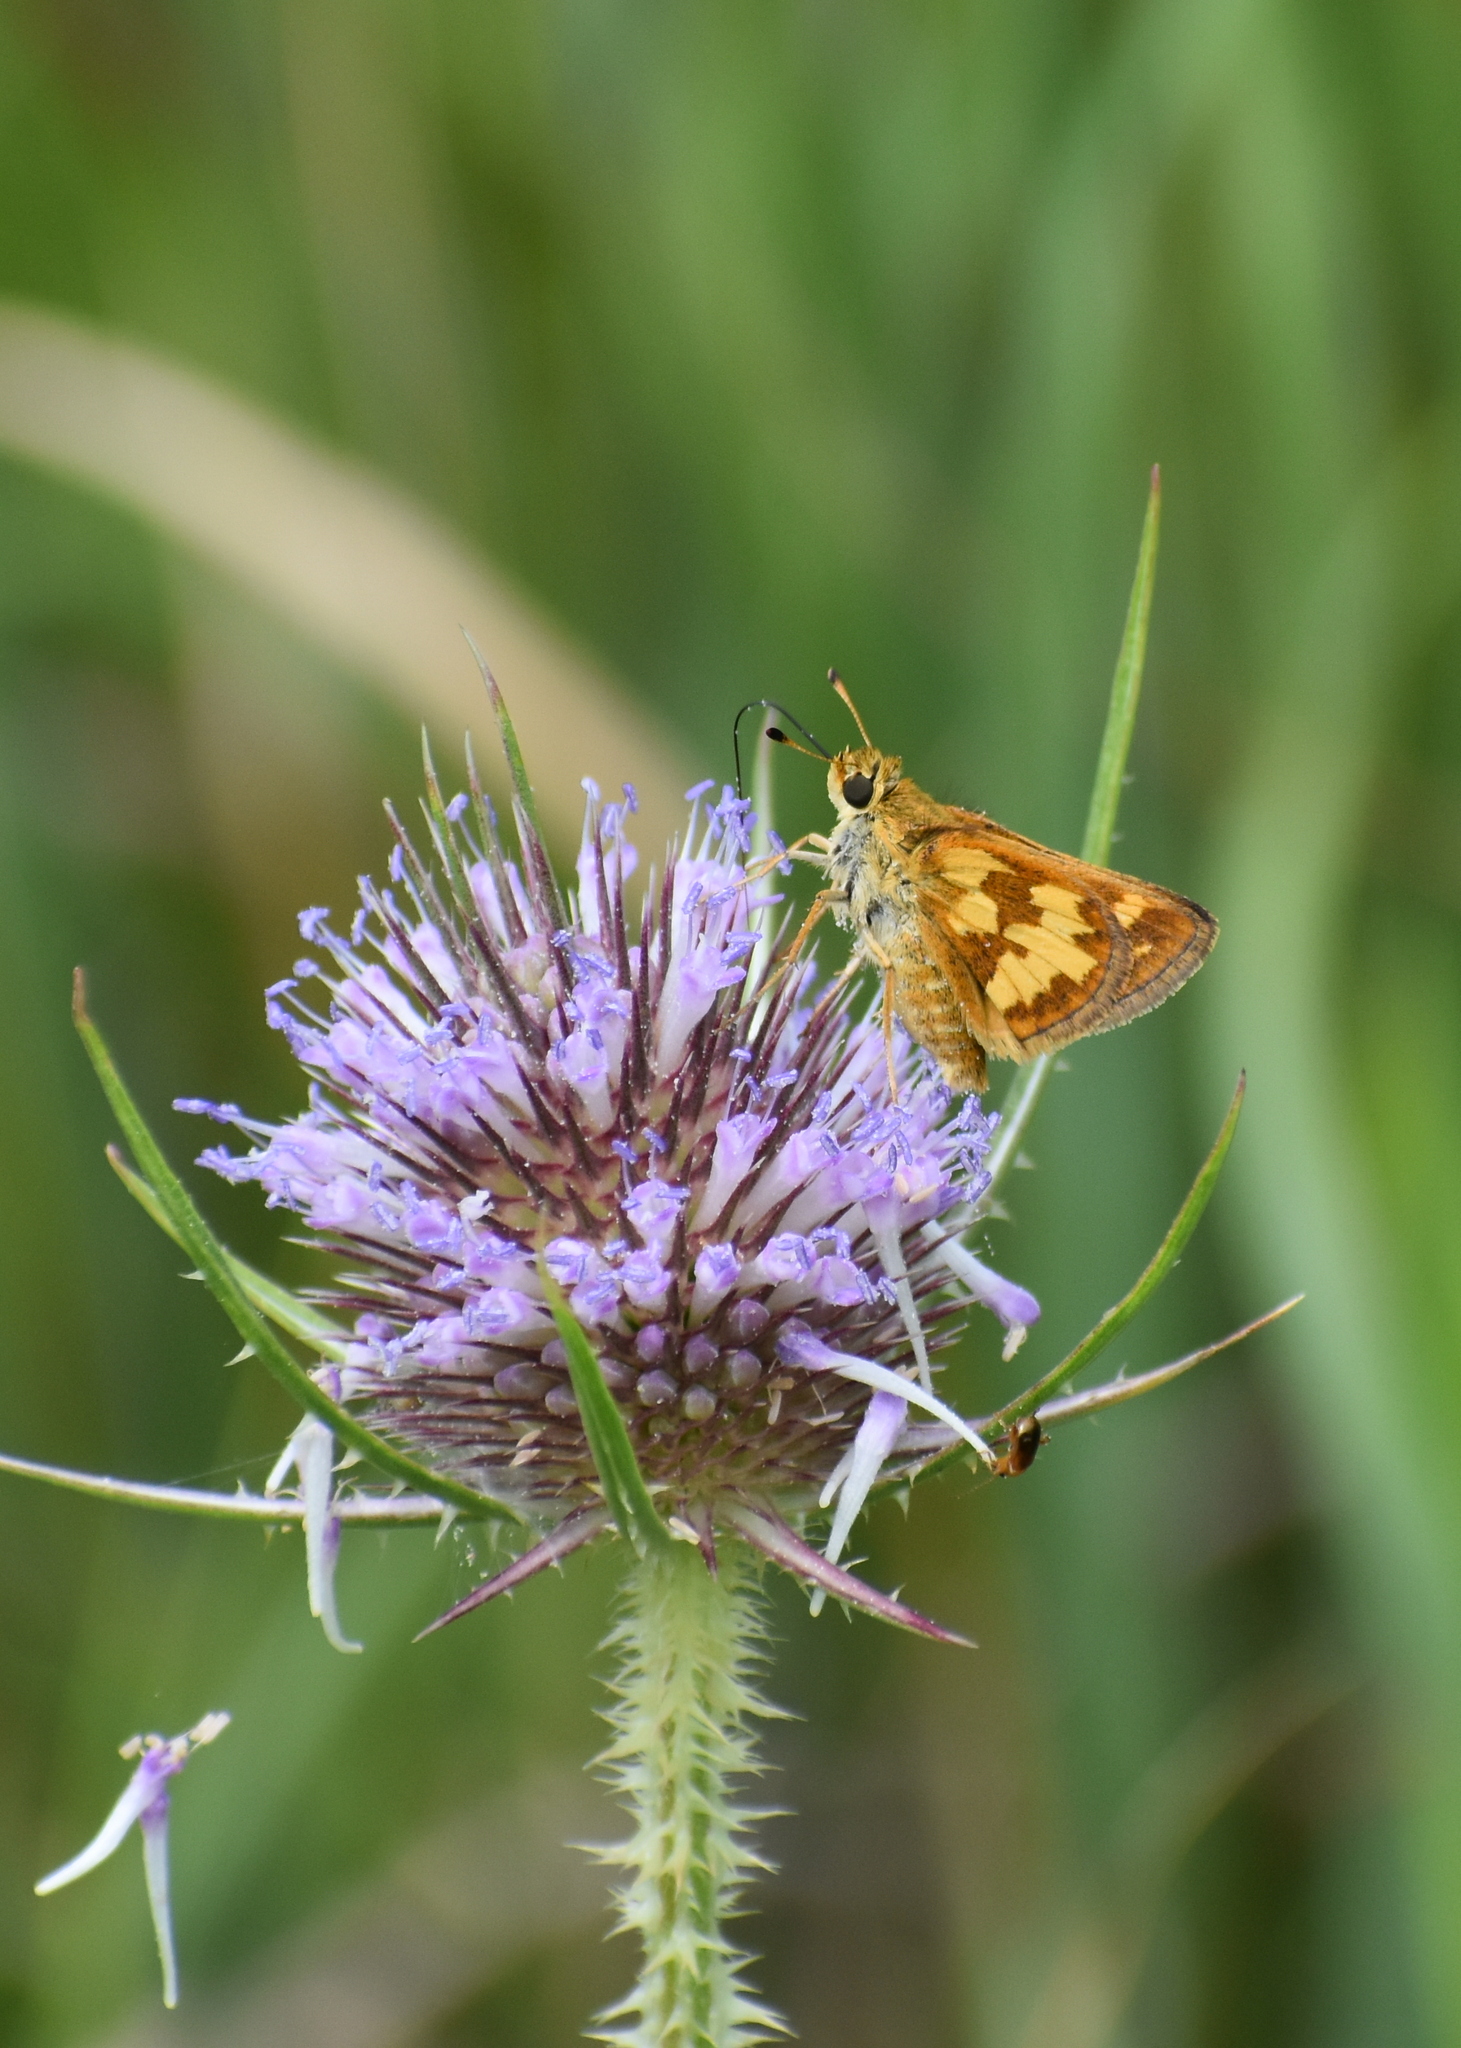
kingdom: Animalia
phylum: Arthropoda
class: Insecta
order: Lepidoptera
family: Hesperiidae
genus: Polites
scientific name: Polites coras
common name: Peck's skipper
